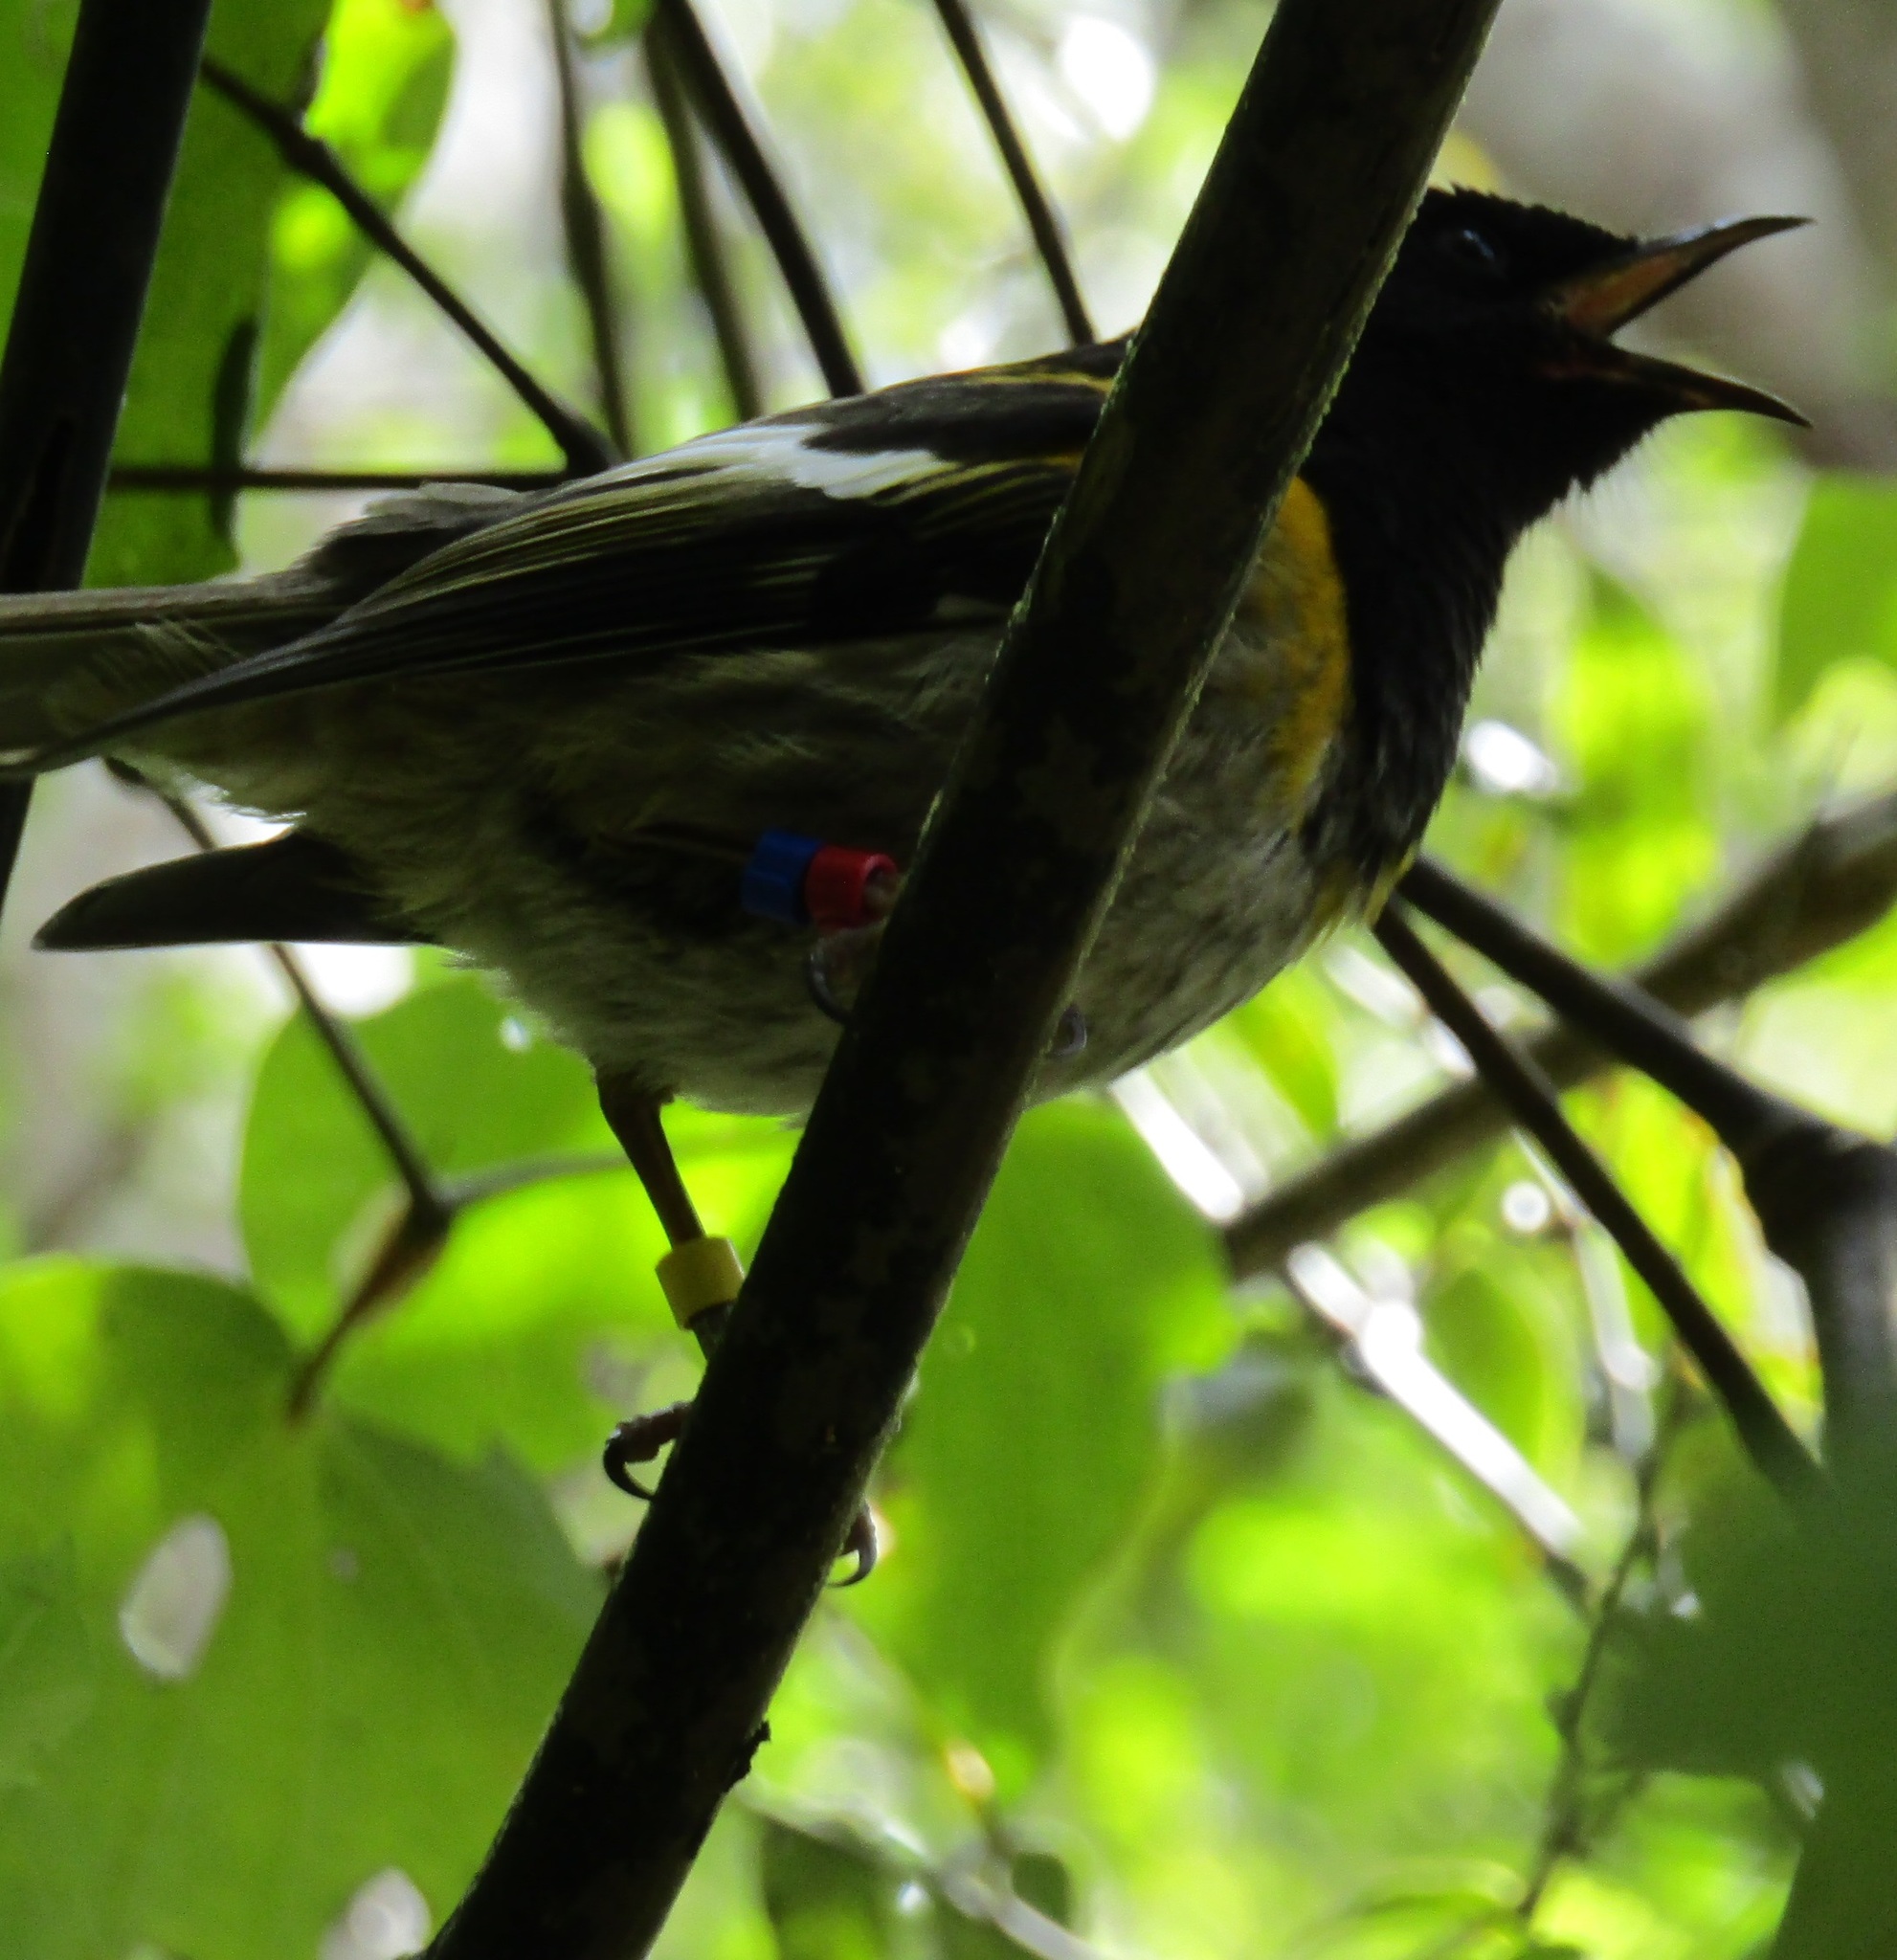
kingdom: Animalia
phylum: Chordata
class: Aves
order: Passeriformes
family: Notiomystidae
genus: Notiomystis
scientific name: Notiomystis cincta
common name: Stitchbird
